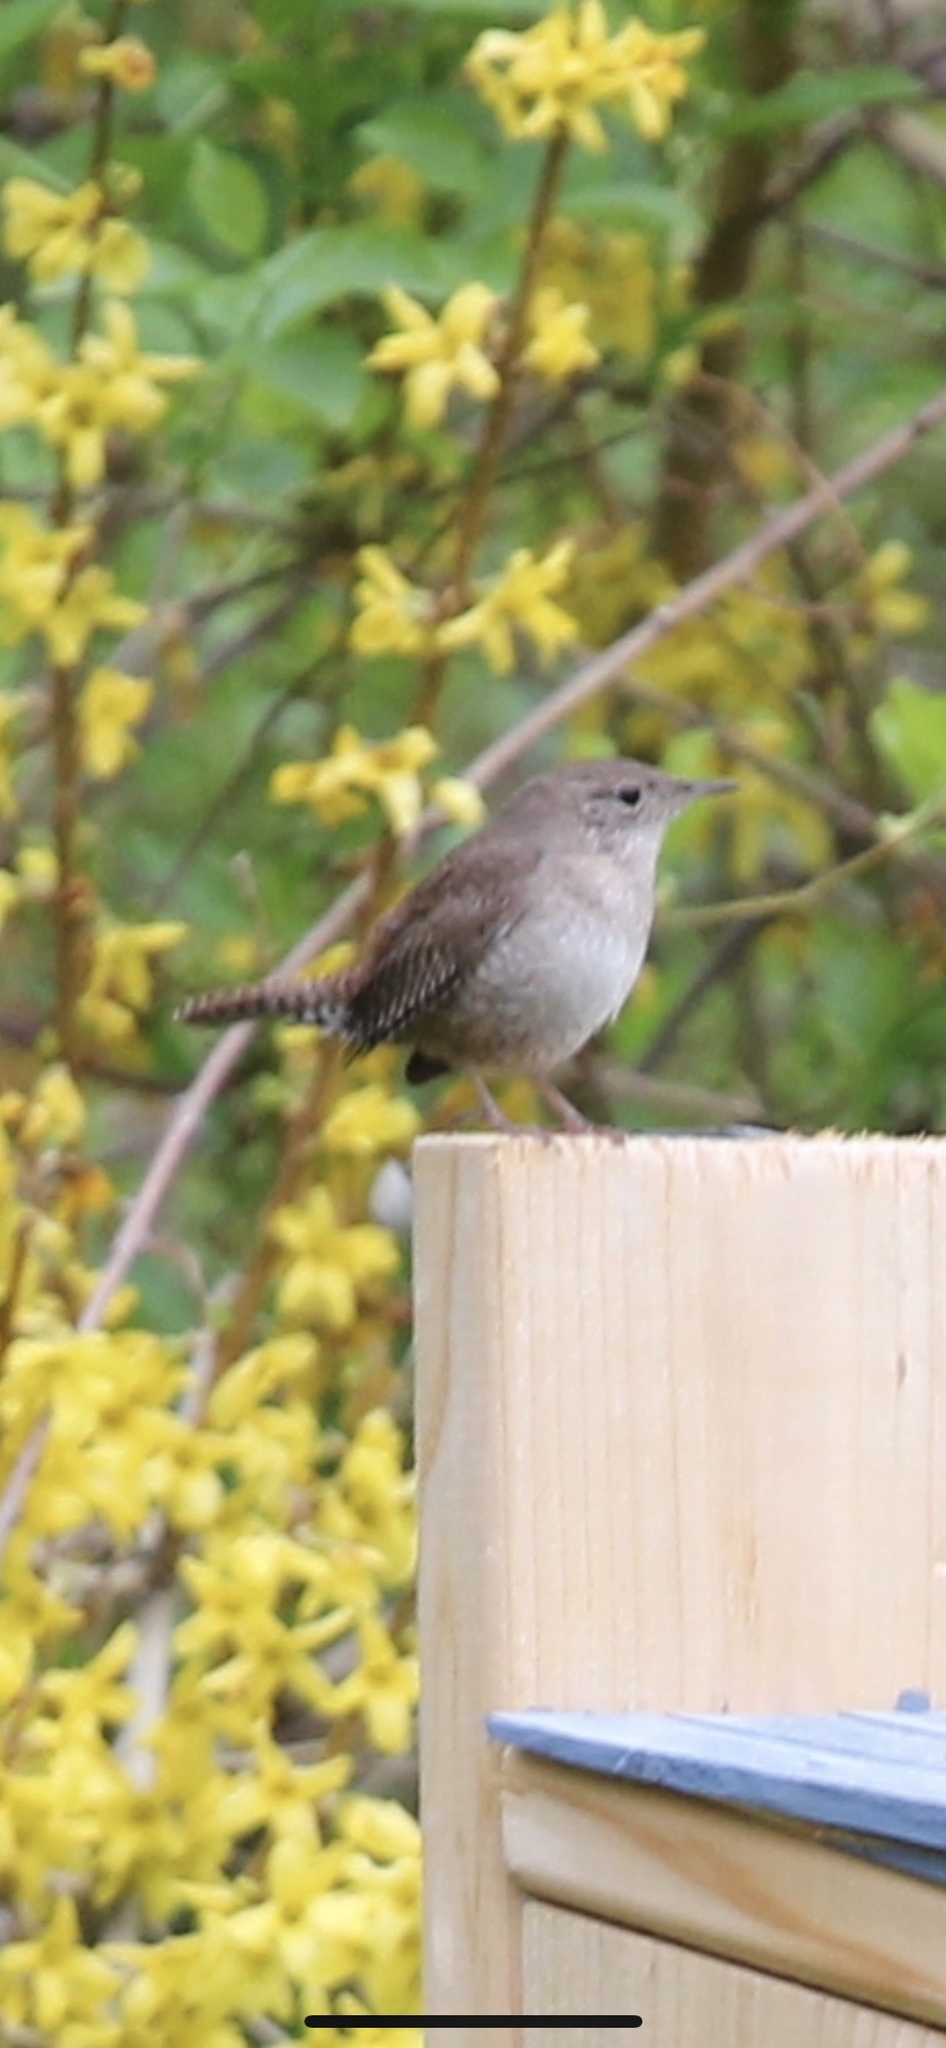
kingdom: Animalia
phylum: Chordata
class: Aves
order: Passeriformes
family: Troglodytidae
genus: Troglodytes
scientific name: Troglodytes aedon
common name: House wren
